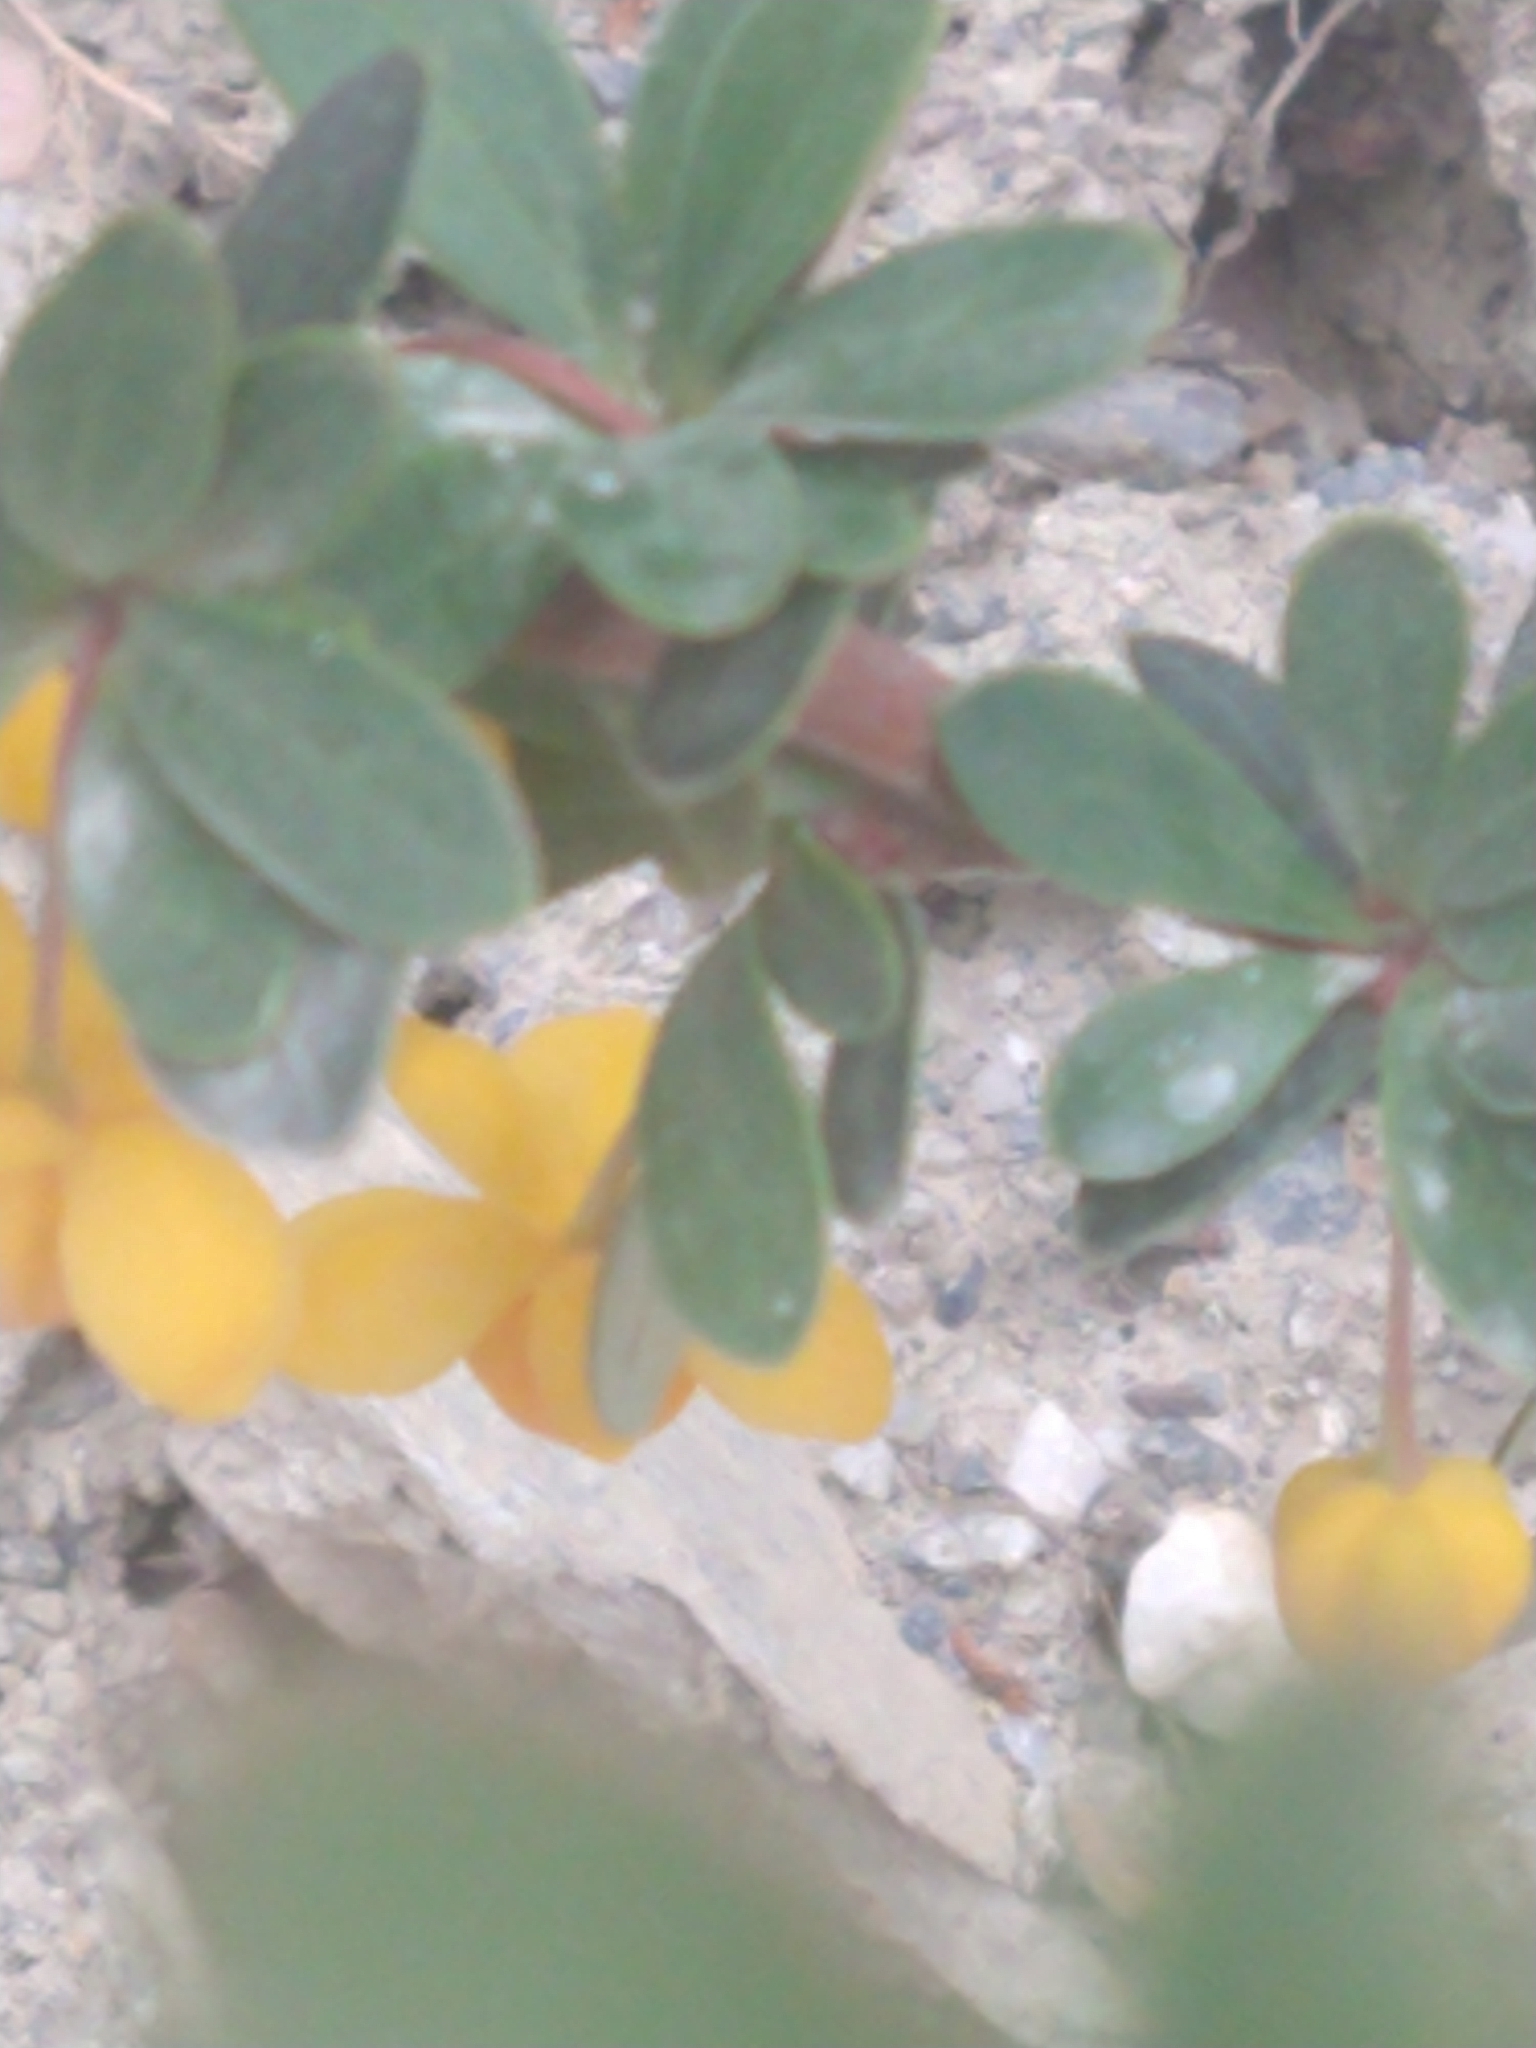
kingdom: Plantae
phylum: Tracheophyta
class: Magnoliopsida
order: Ranunculales
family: Berberidaceae
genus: Berberis
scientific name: Berberis microphylla
